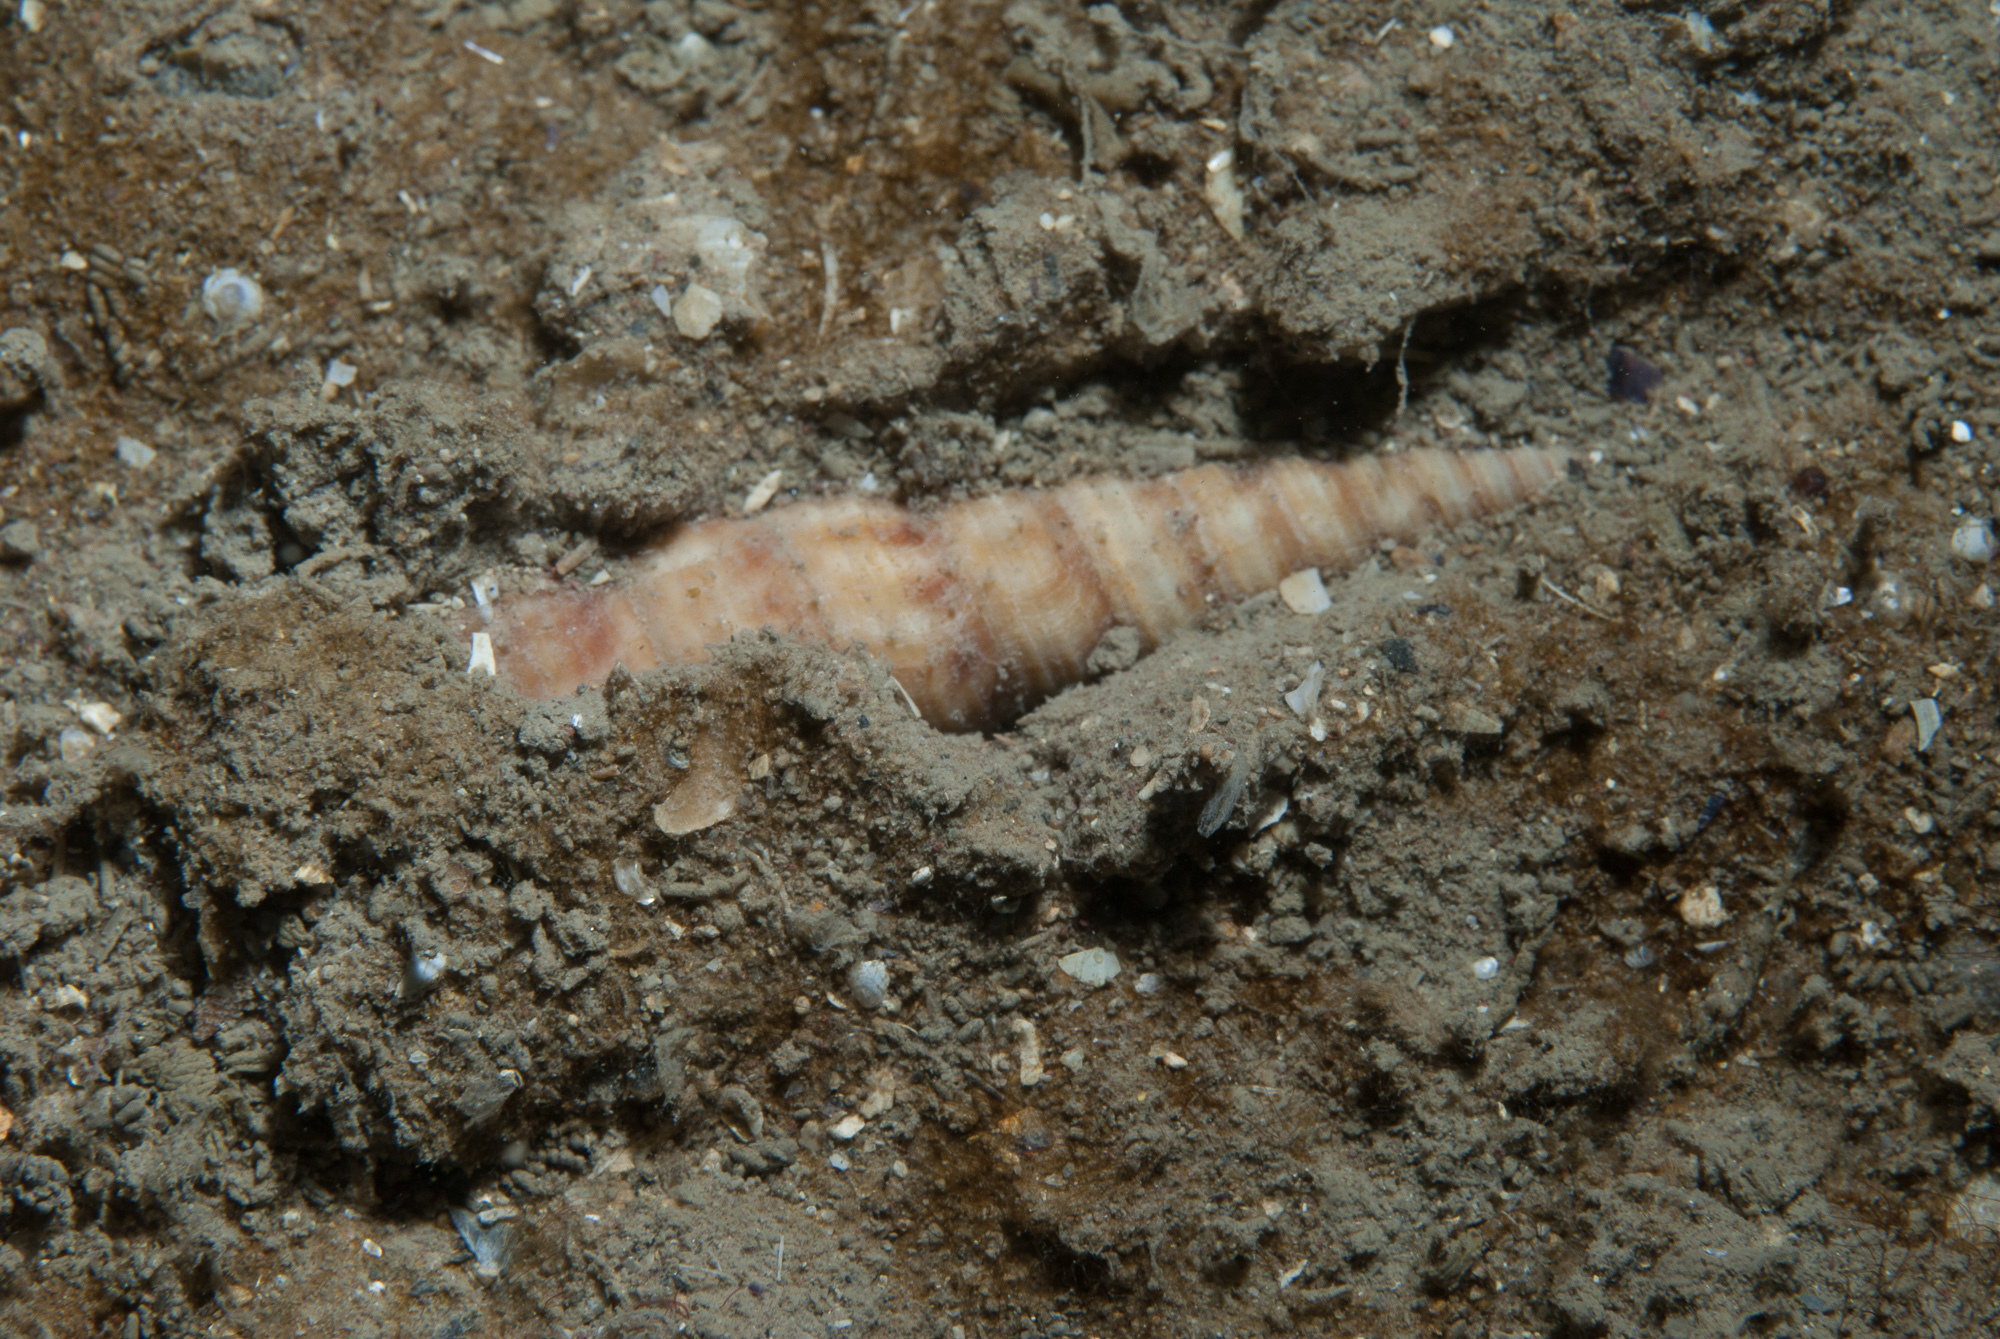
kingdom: Animalia
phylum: Mollusca
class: Gastropoda
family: Turritellidae
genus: Turritellinella
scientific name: Turritellinella tricarinata
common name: Auger shell
